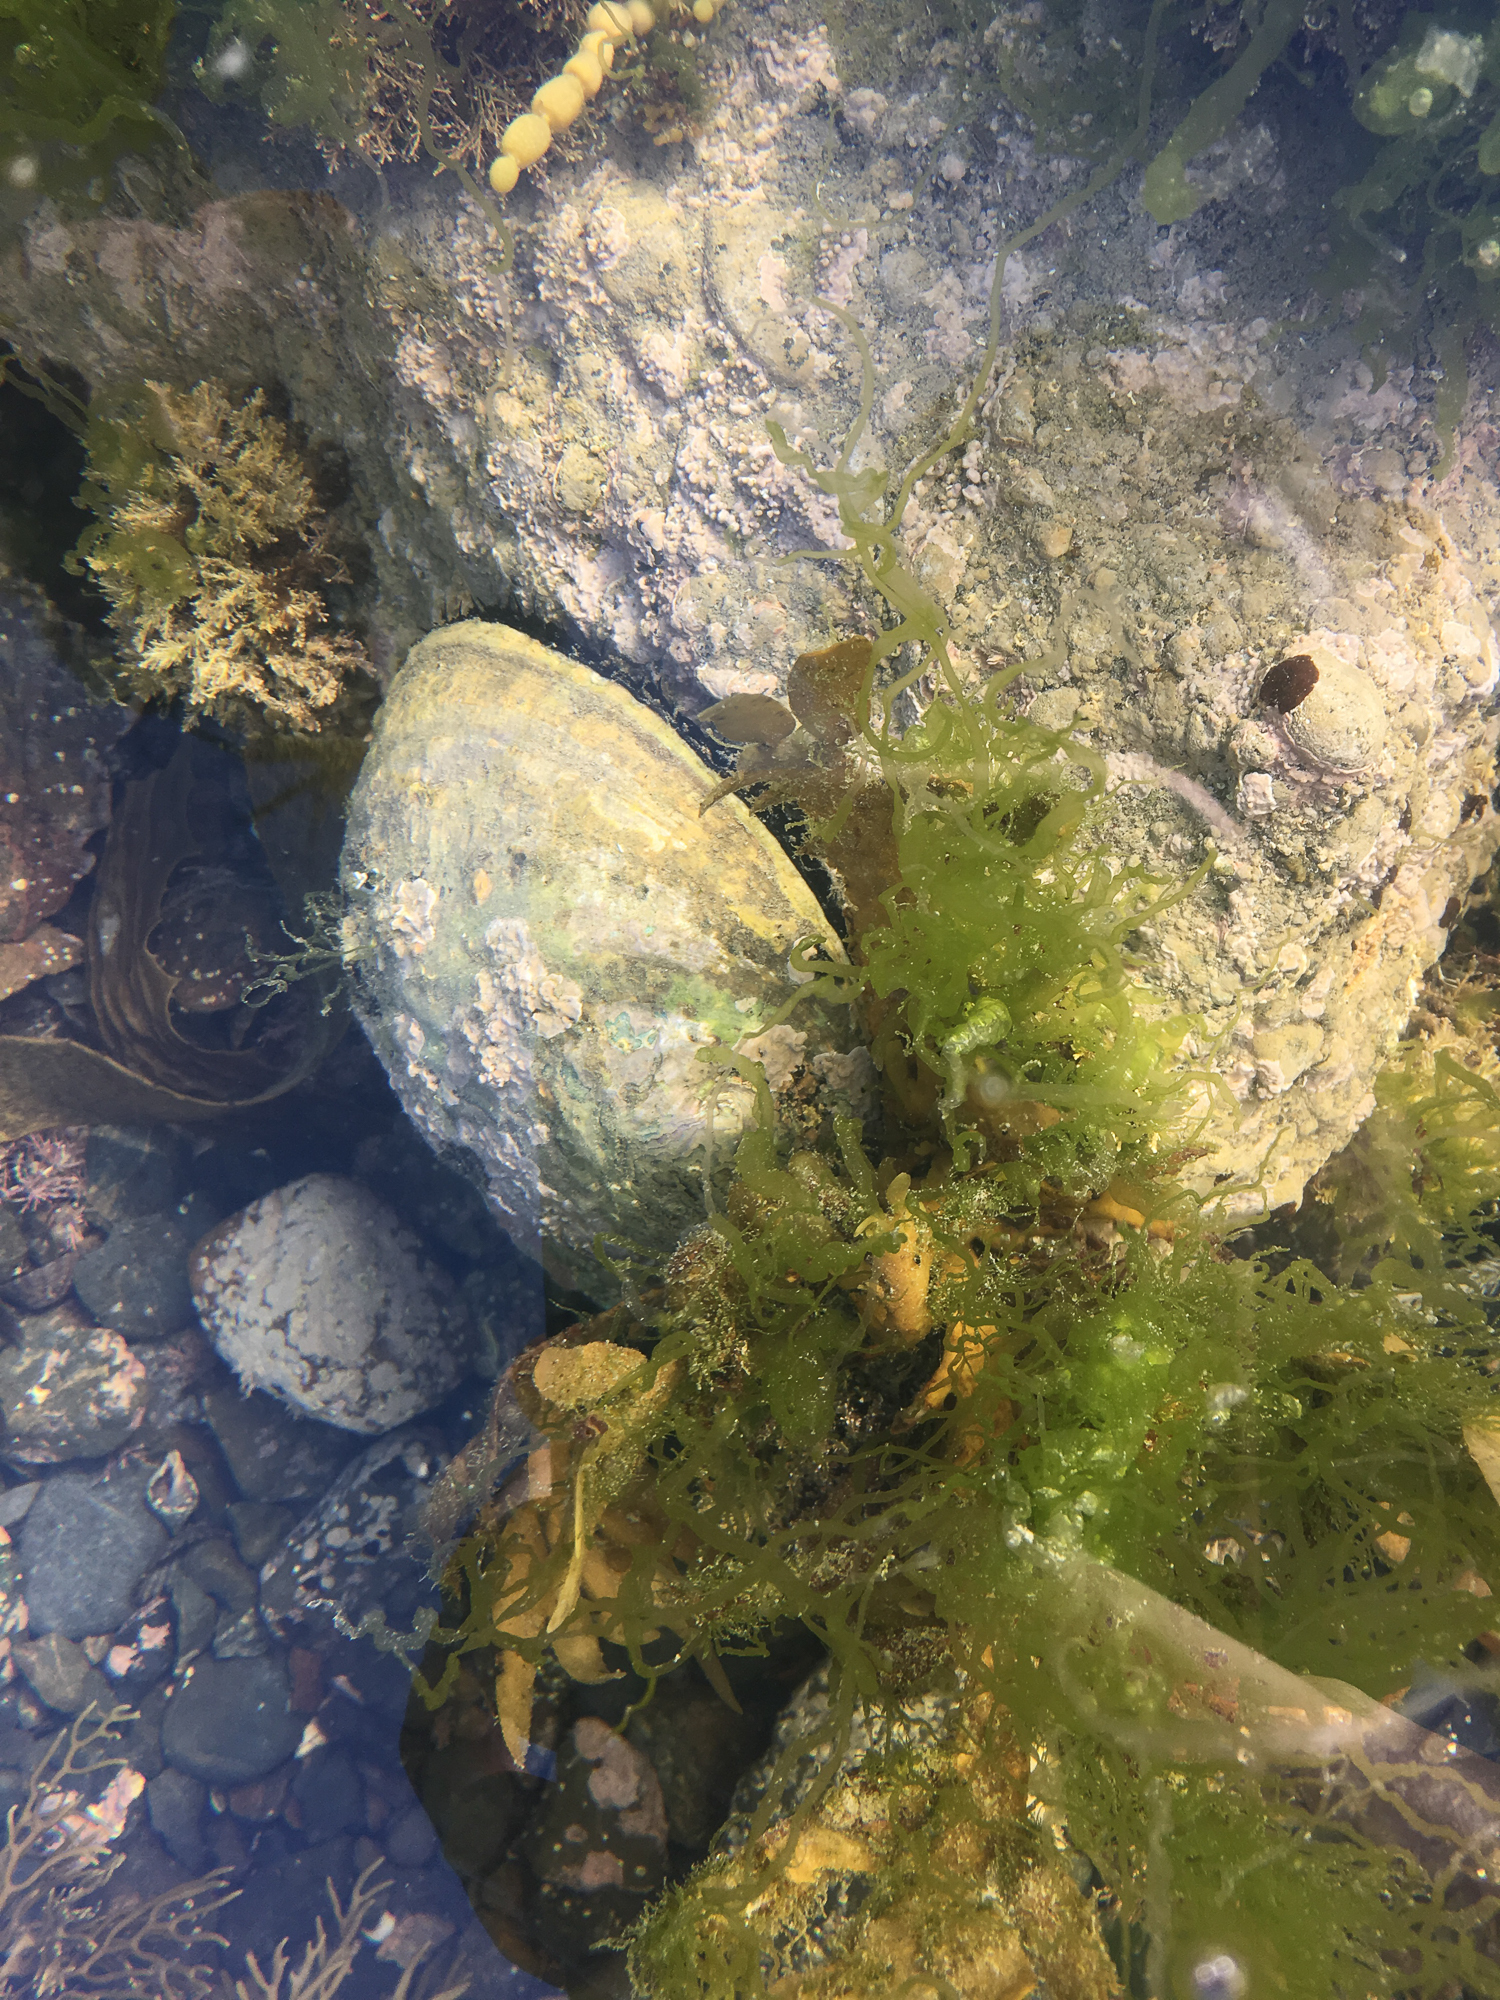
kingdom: Animalia
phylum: Mollusca
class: Gastropoda
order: Lepetellida
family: Haliotidae
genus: Haliotis
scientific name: Haliotis iris
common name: Abalone
